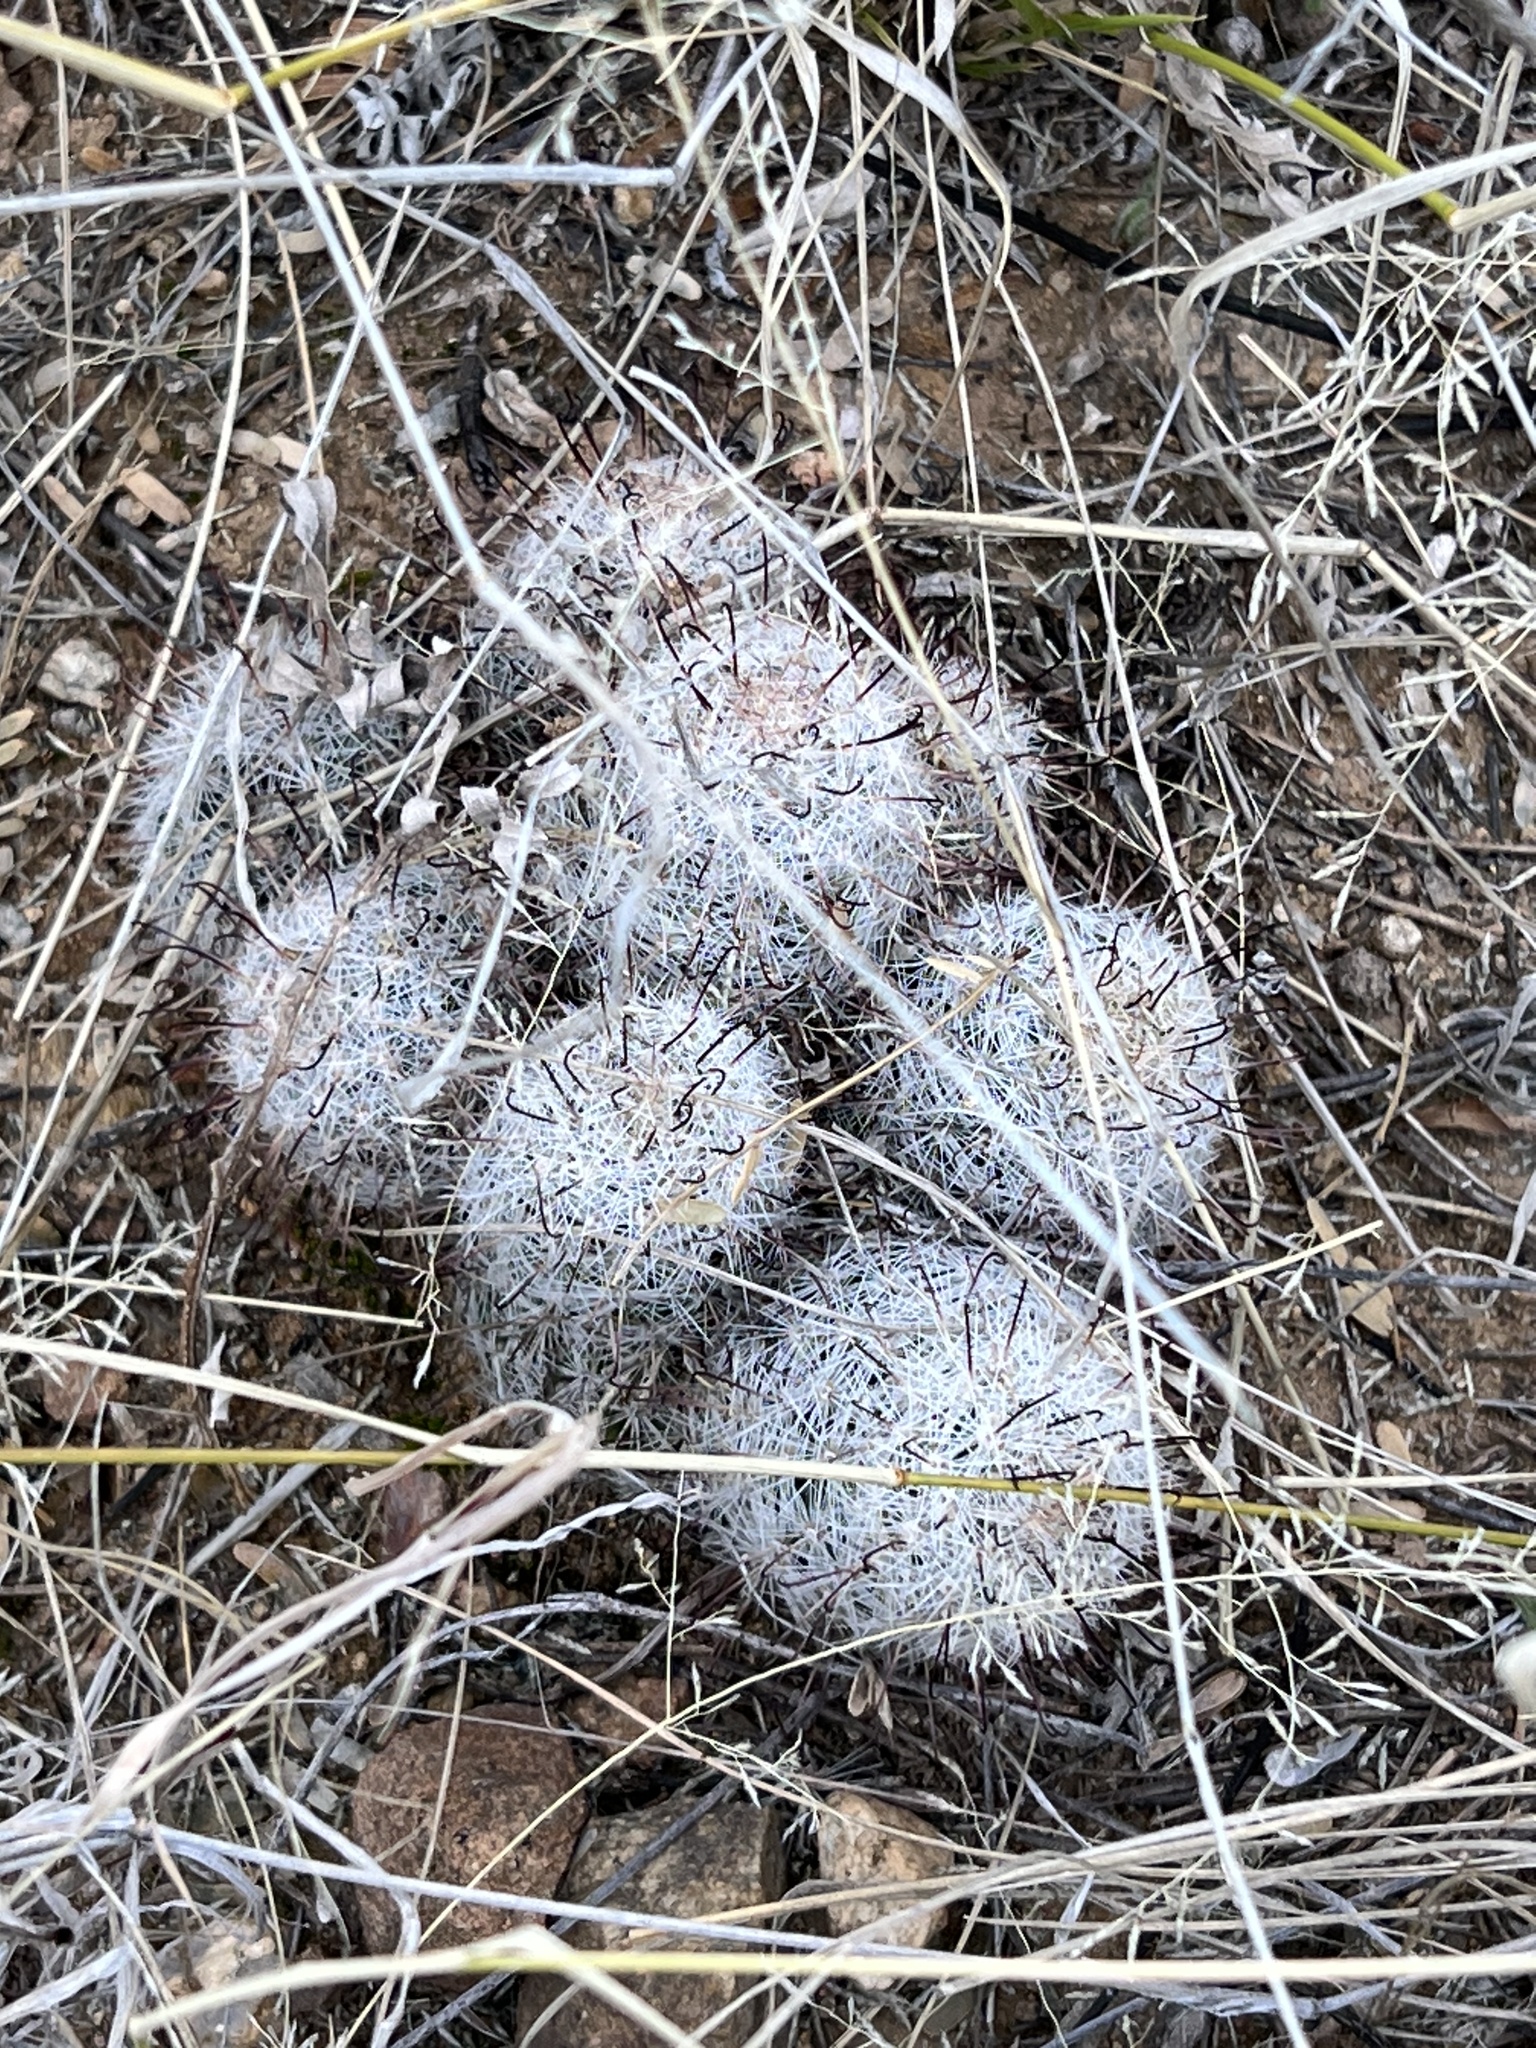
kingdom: Plantae
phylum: Tracheophyta
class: Magnoliopsida
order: Caryophyllales
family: Cactaceae
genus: Cochemiea
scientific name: Cochemiea grahamii
